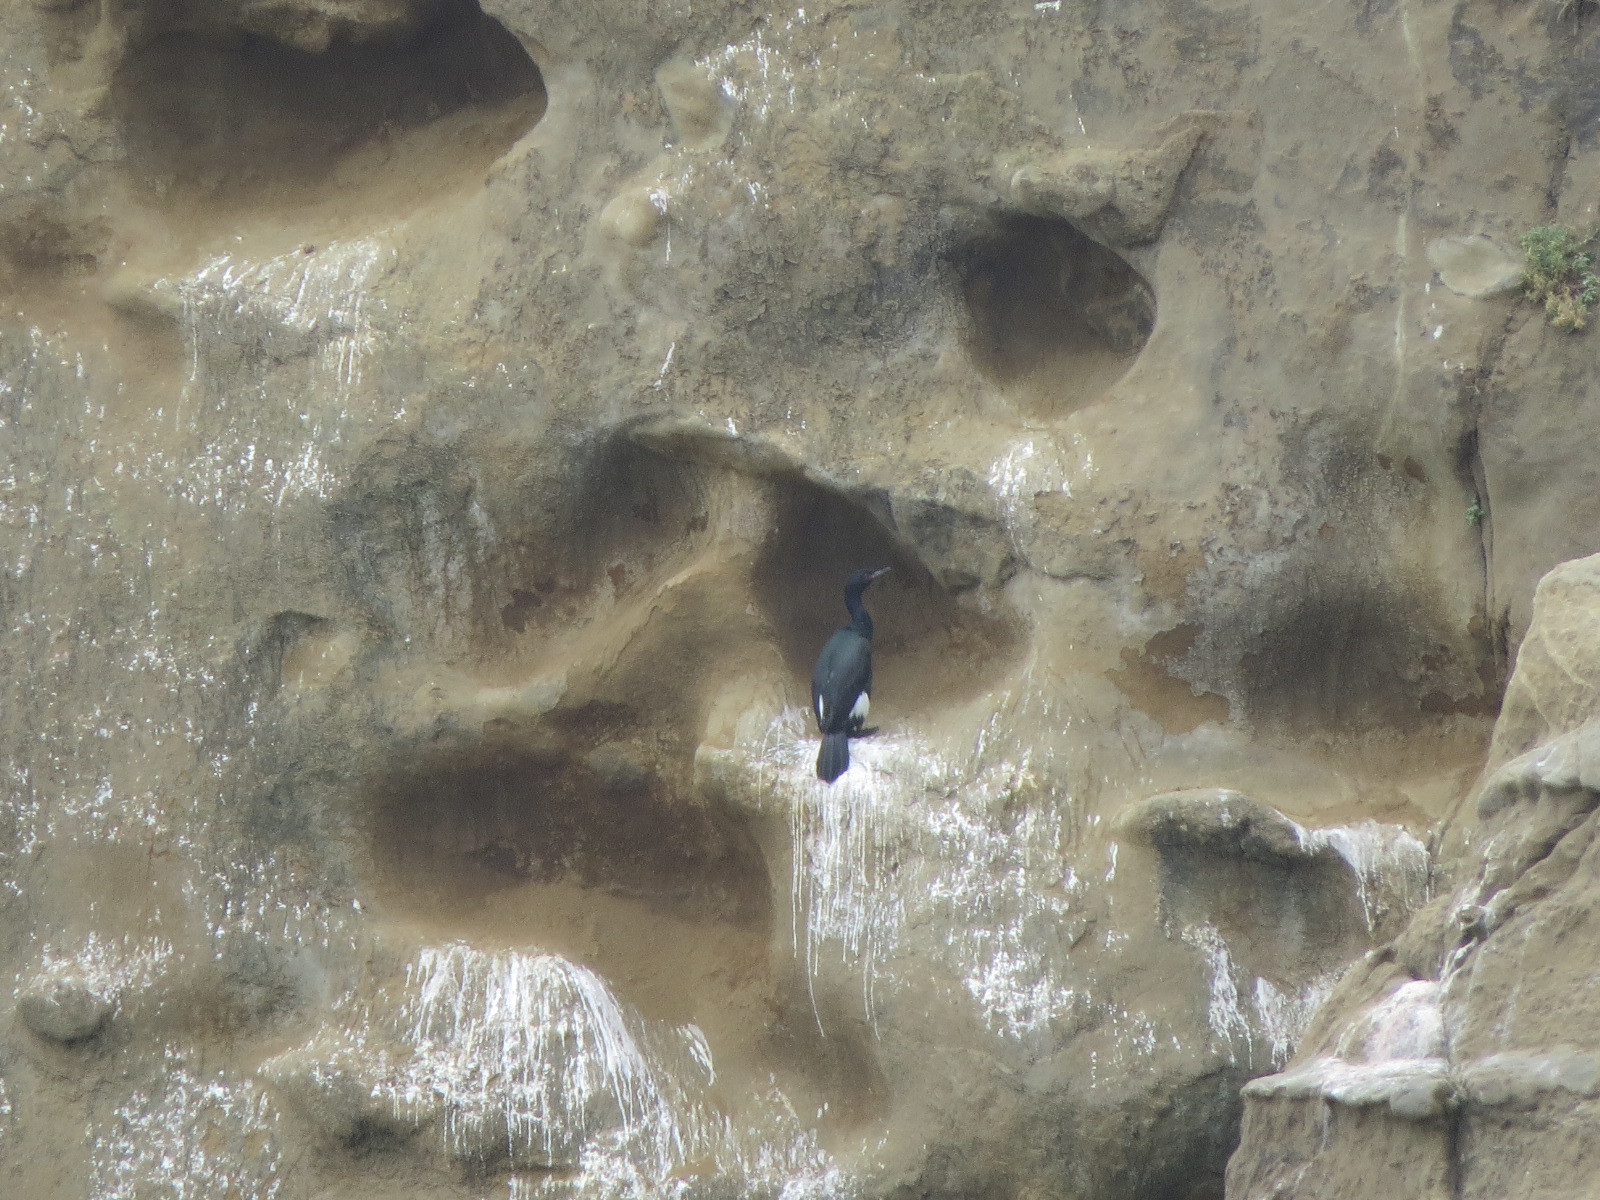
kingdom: Animalia
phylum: Chordata
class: Aves
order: Suliformes
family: Phalacrocoracidae
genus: Phalacrocorax
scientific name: Phalacrocorax pelagicus
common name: Pelagic cormorant
